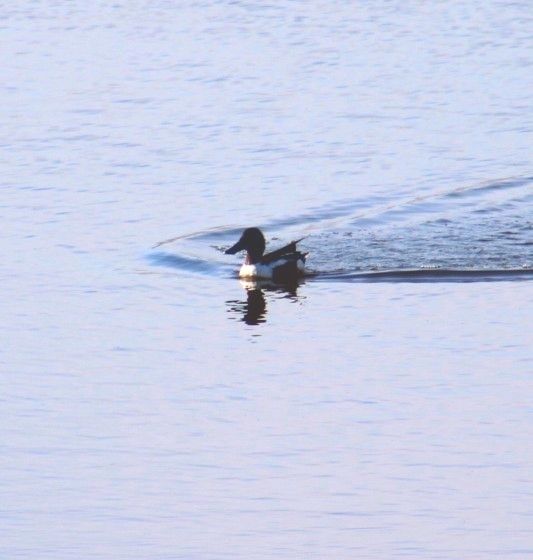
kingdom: Animalia
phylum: Chordata
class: Aves
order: Anseriformes
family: Anatidae
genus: Spatula
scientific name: Spatula clypeata
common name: Northern shoveler
